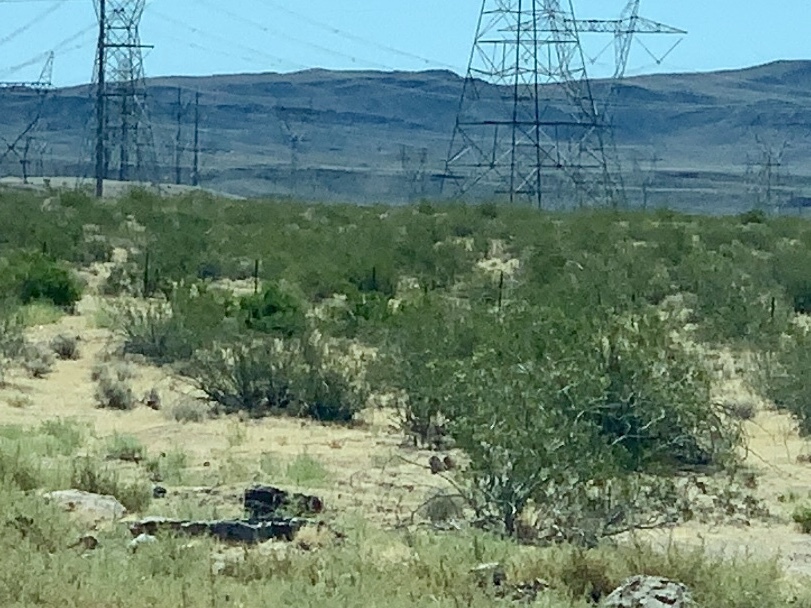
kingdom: Plantae
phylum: Tracheophyta
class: Magnoliopsida
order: Zygophyllales
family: Zygophyllaceae
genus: Larrea
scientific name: Larrea tridentata
